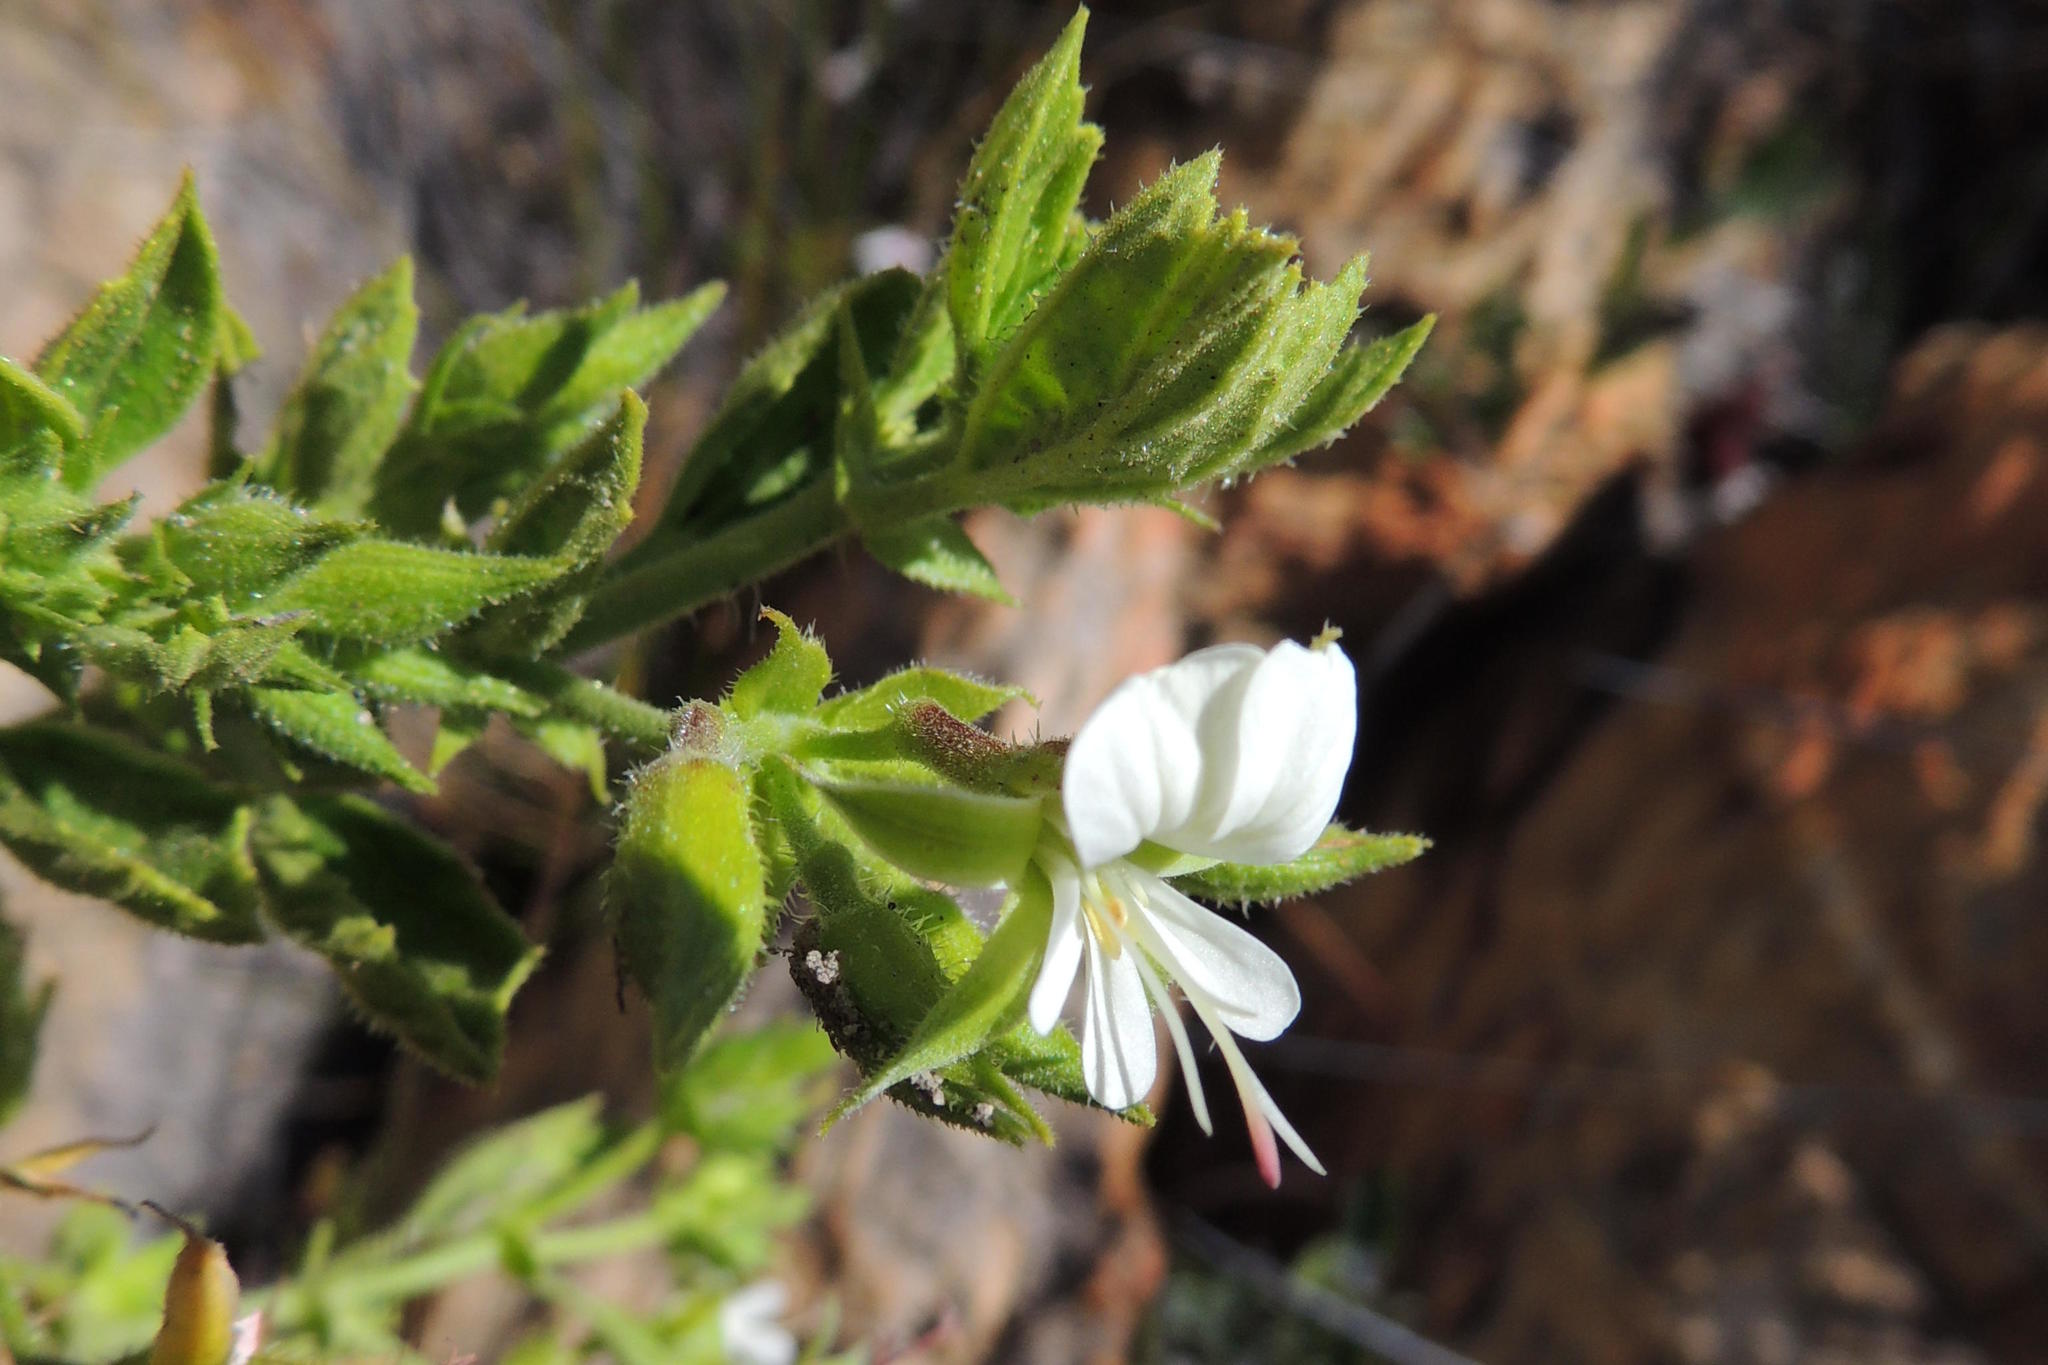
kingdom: Plantae
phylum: Tracheophyta
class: Magnoliopsida
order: Geraniales
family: Geraniaceae
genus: Pelargonium
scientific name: Pelargonium scabrum
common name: Apricot geranium
